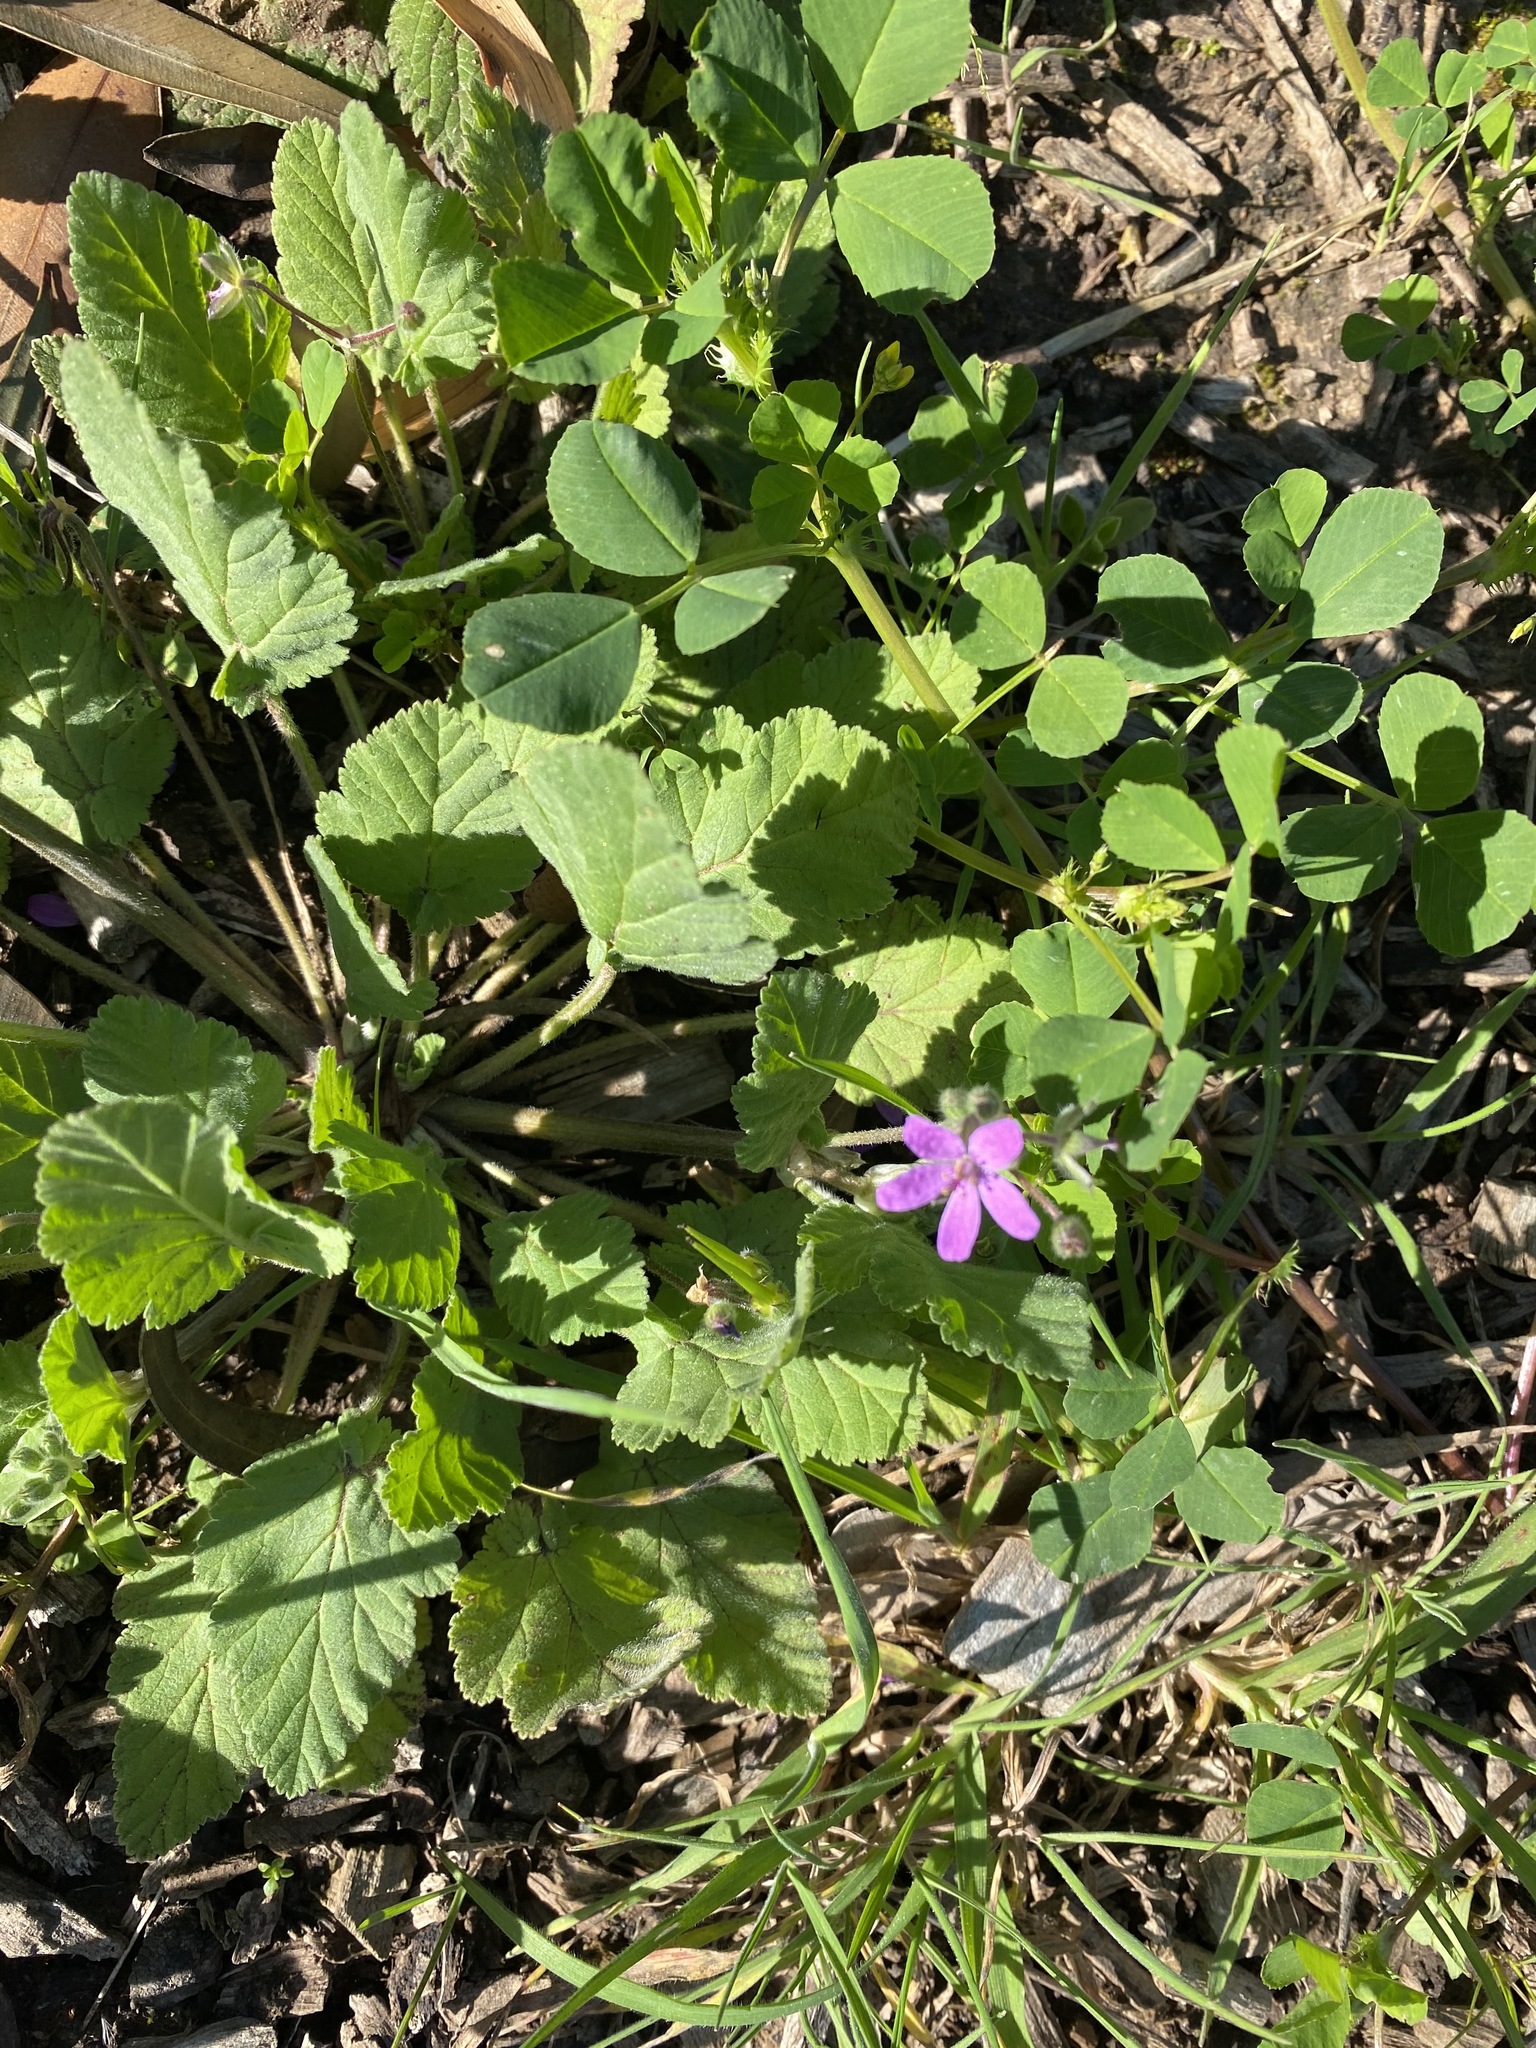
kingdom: Plantae
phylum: Tracheophyta
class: Magnoliopsida
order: Geraniales
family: Geraniaceae
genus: Erodium
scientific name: Erodium malacoides
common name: Soft stork's-bill
